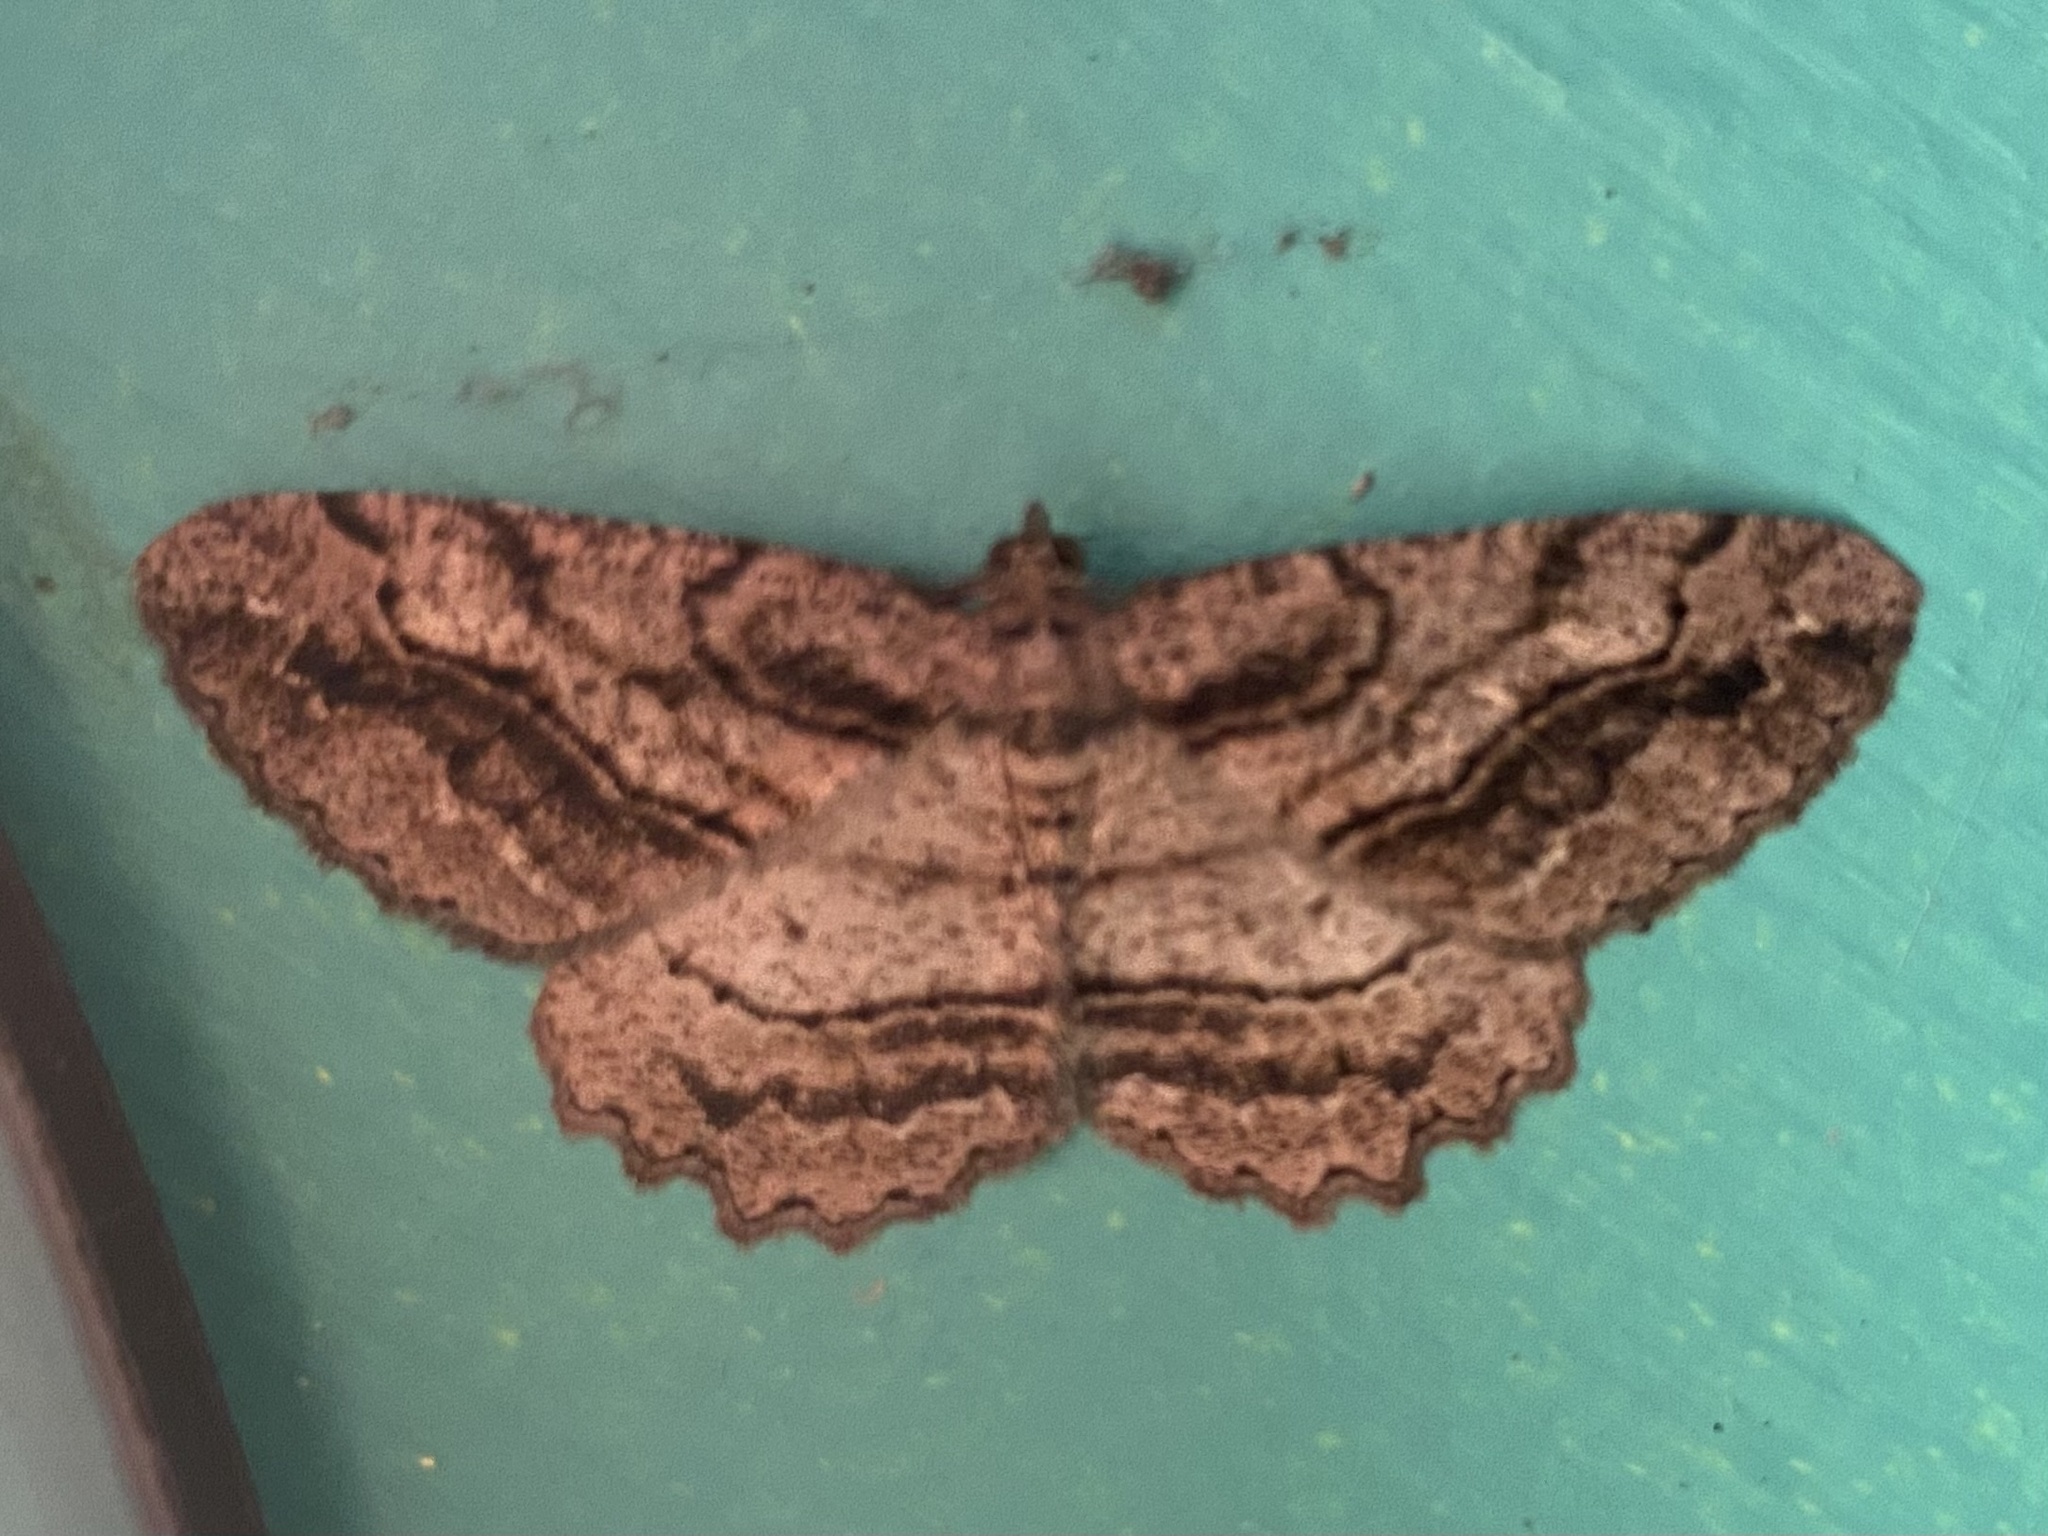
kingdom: Animalia
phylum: Arthropoda
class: Insecta
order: Lepidoptera
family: Geometridae
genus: Neoalcis
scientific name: Neoalcis californiaria
